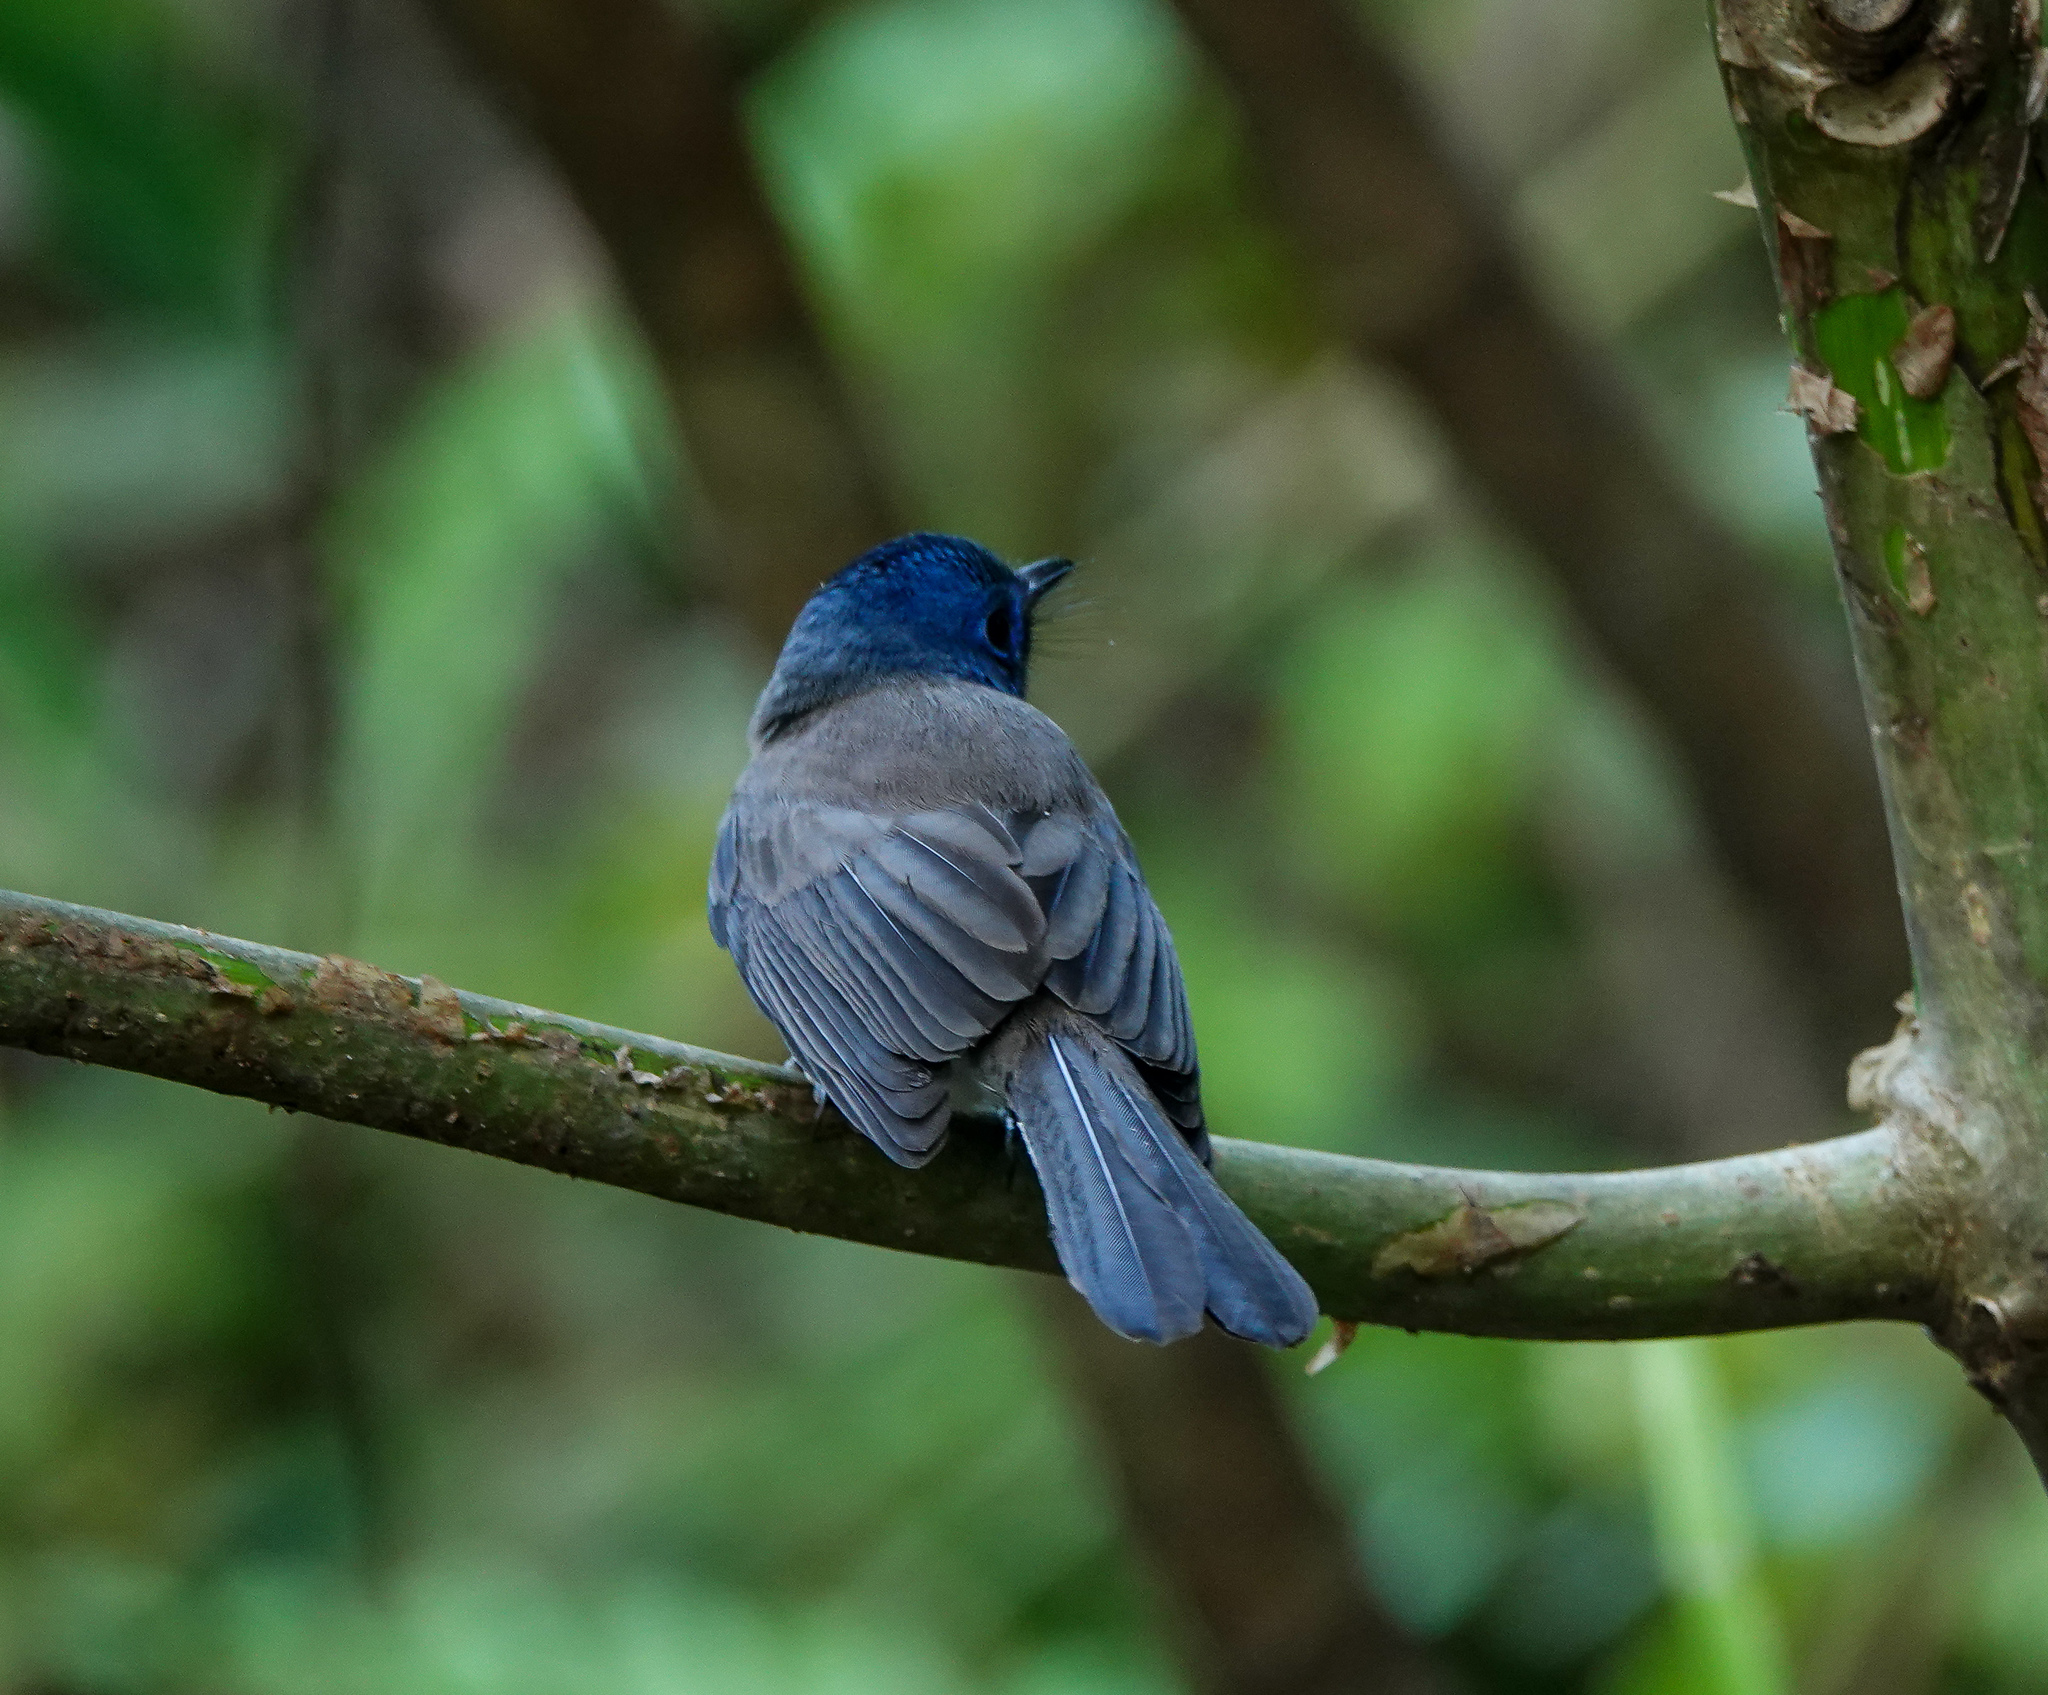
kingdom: Animalia
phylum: Chordata
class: Aves
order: Passeriformes
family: Monarchidae
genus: Hypothymis
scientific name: Hypothymis azurea
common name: Black-naped monarch
